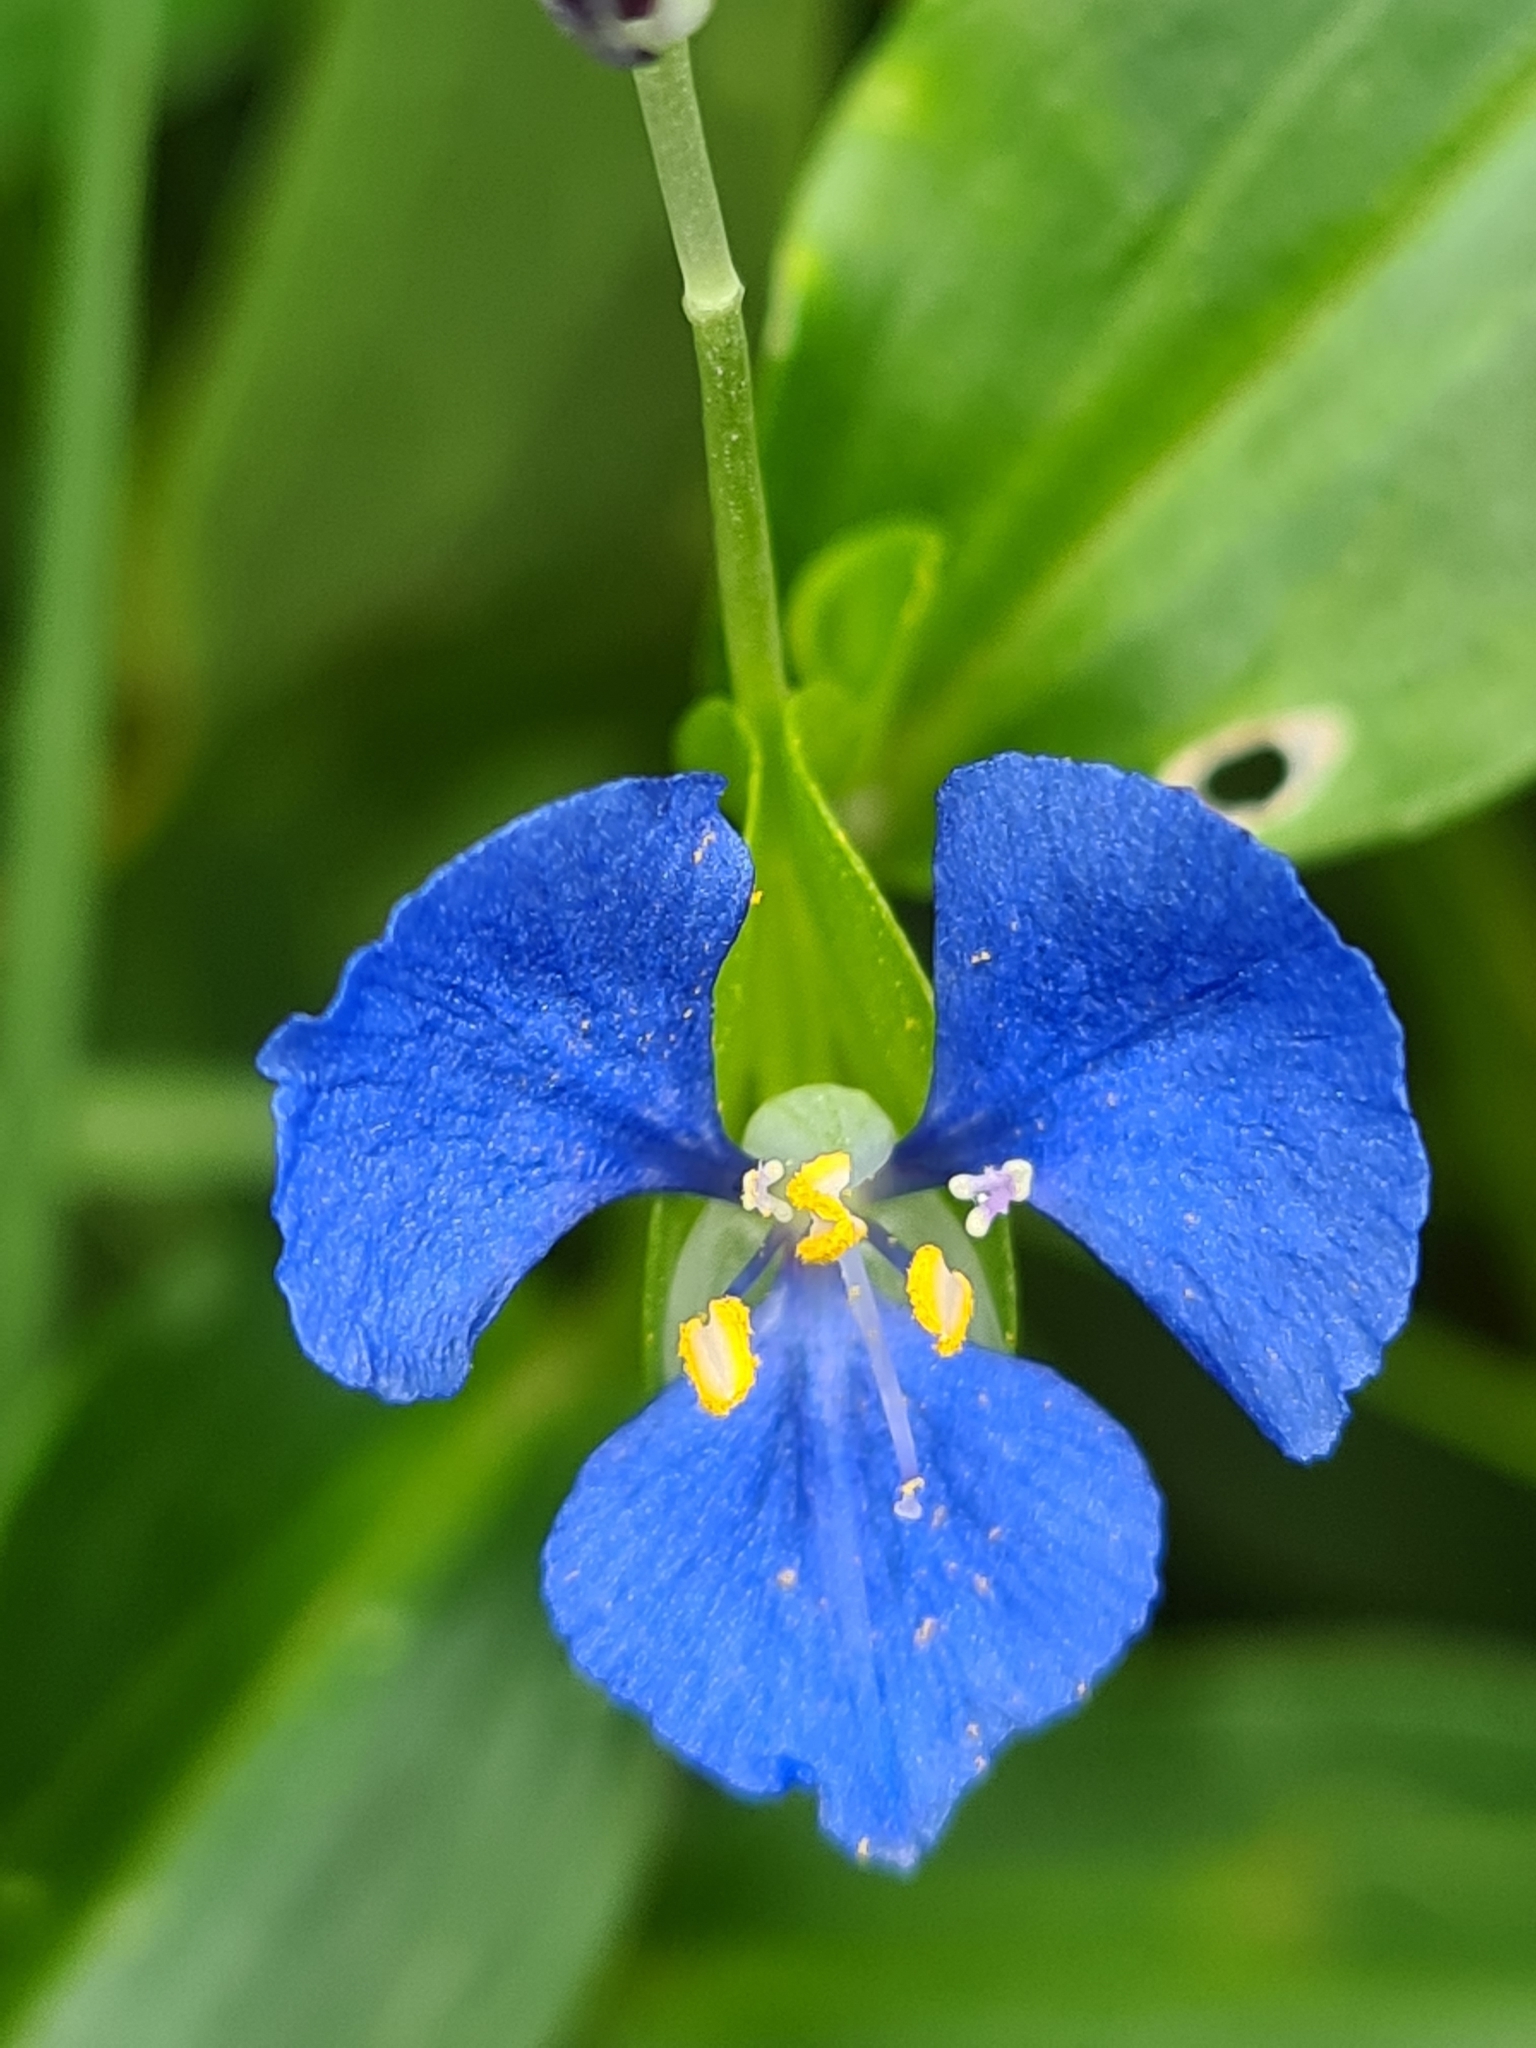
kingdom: Plantae
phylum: Tracheophyta
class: Liliopsida
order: Commelinales
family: Commelinaceae
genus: Commelina
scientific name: Commelina cyanea
